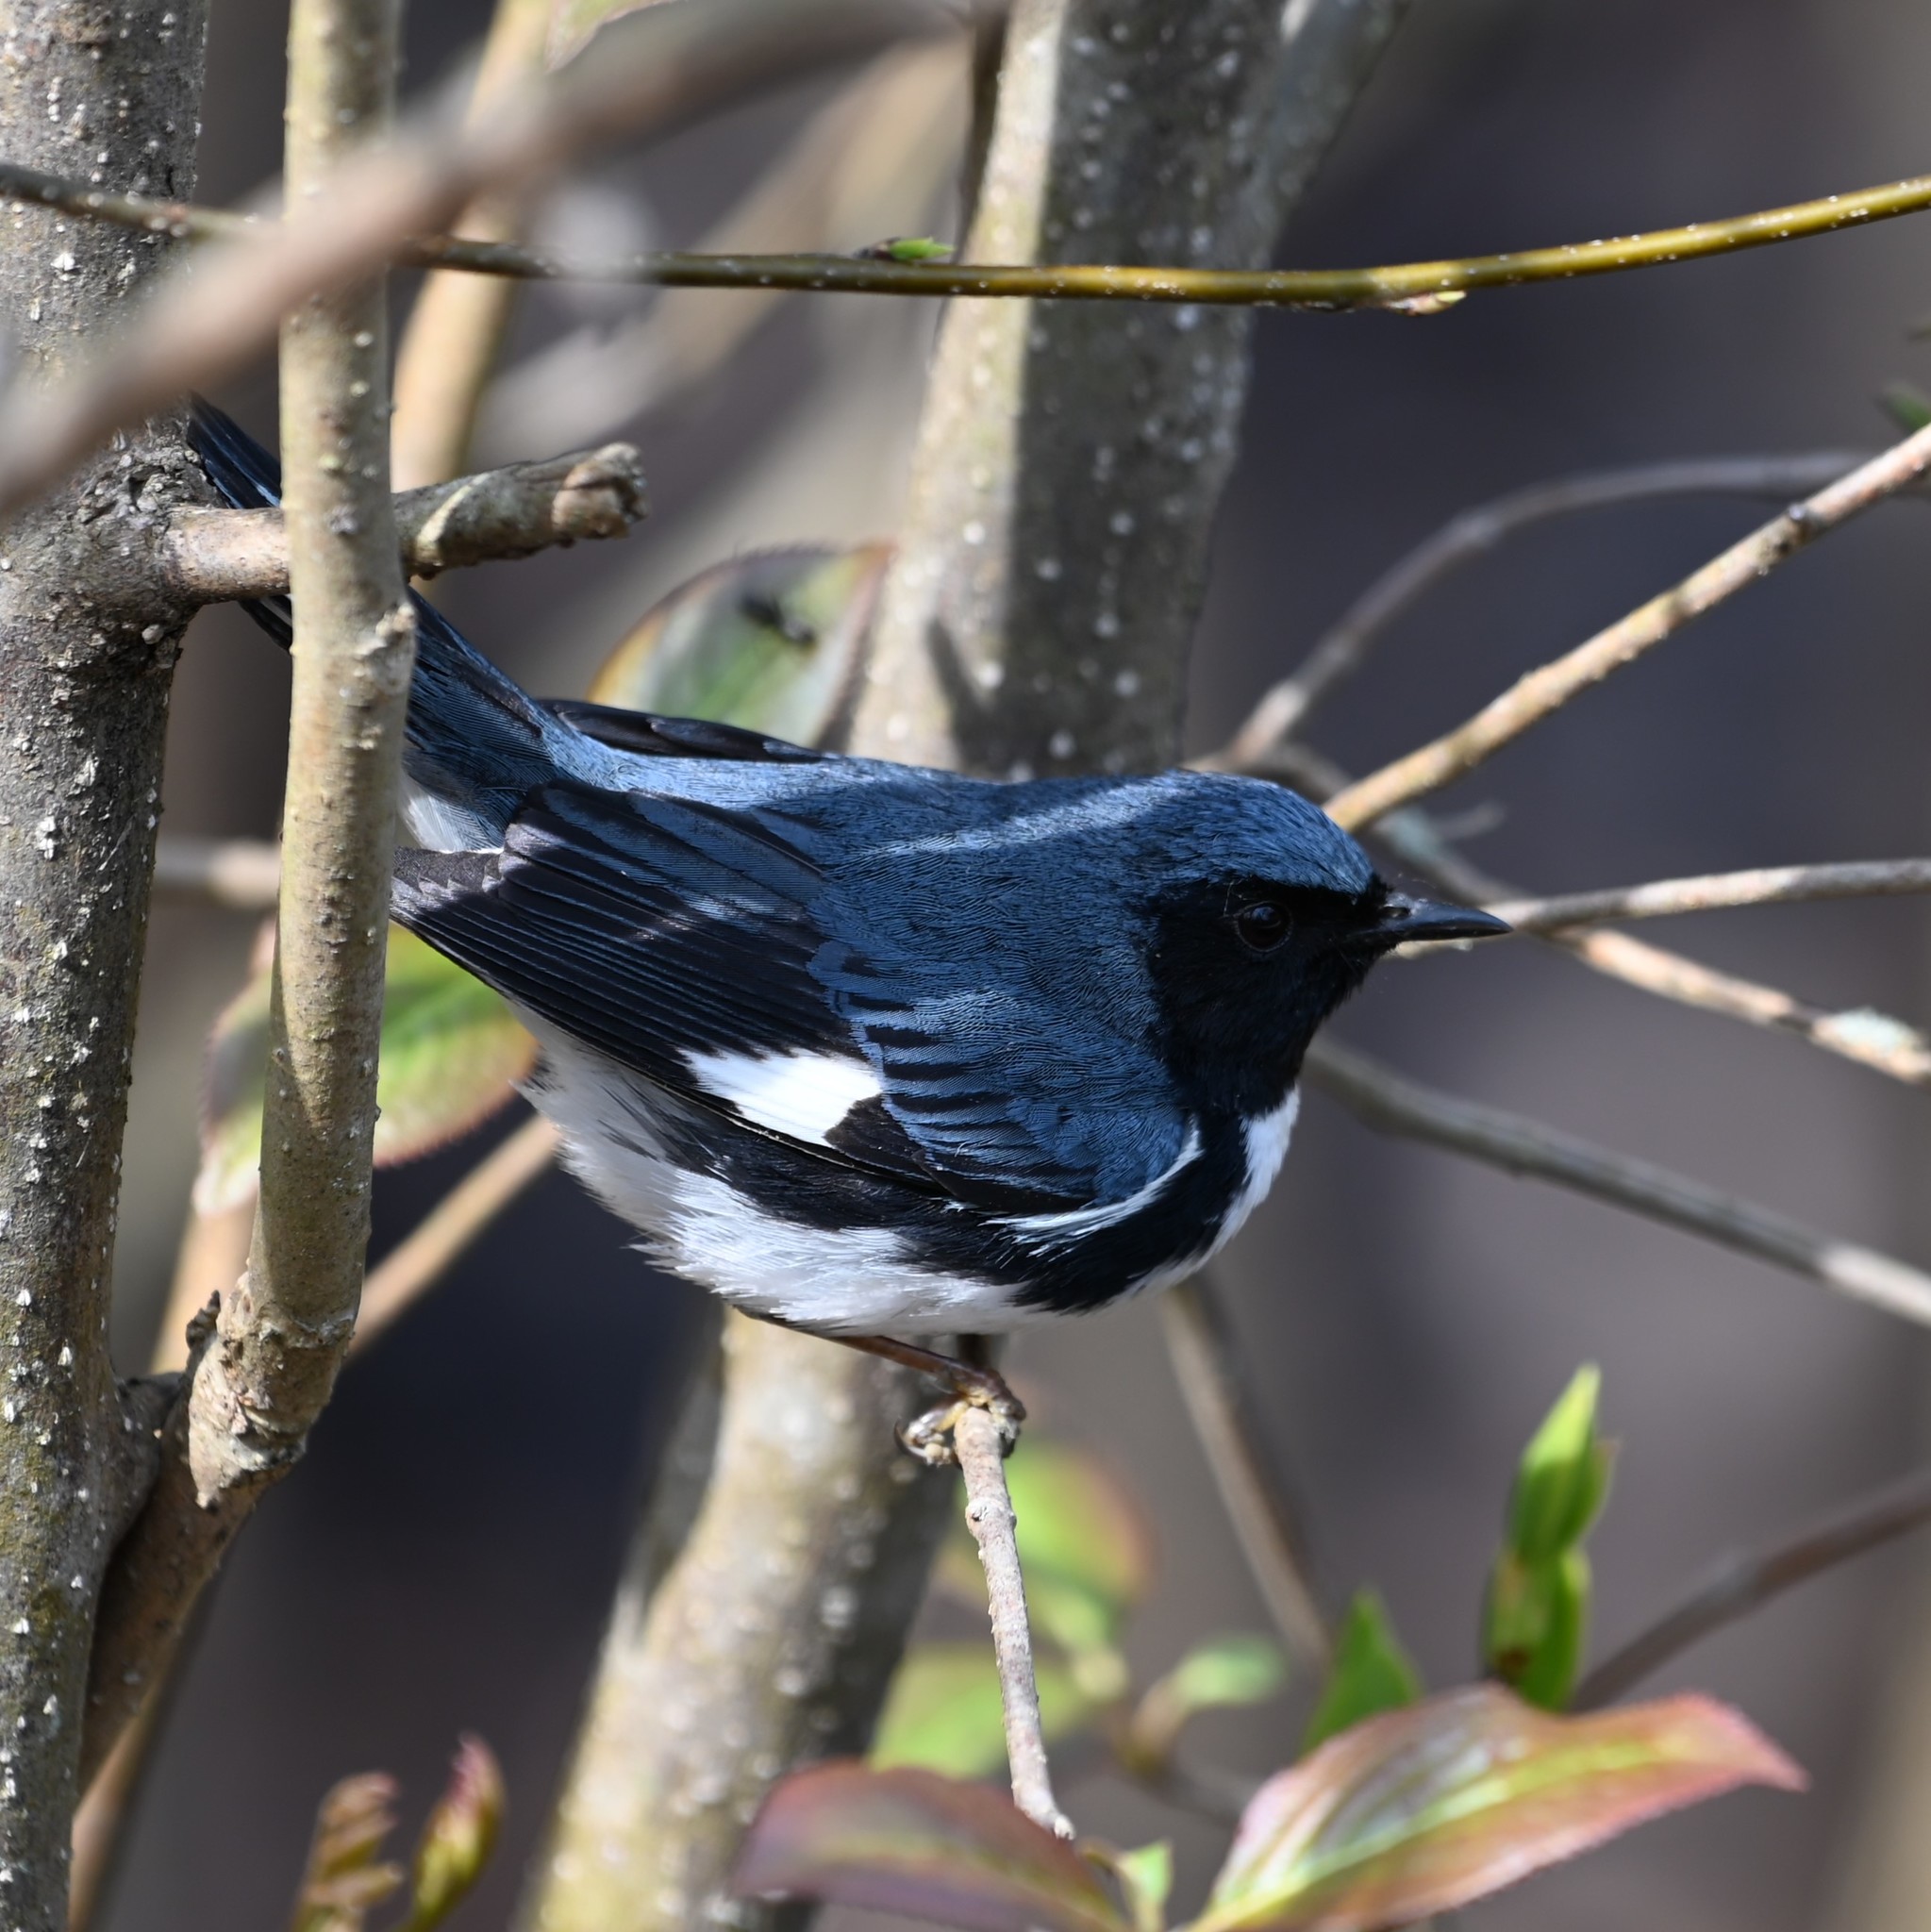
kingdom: Animalia
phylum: Chordata
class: Aves
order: Passeriformes
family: Parulidae
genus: Setophaga
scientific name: Setophaga caerulescens
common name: Black-throated blue warbler
